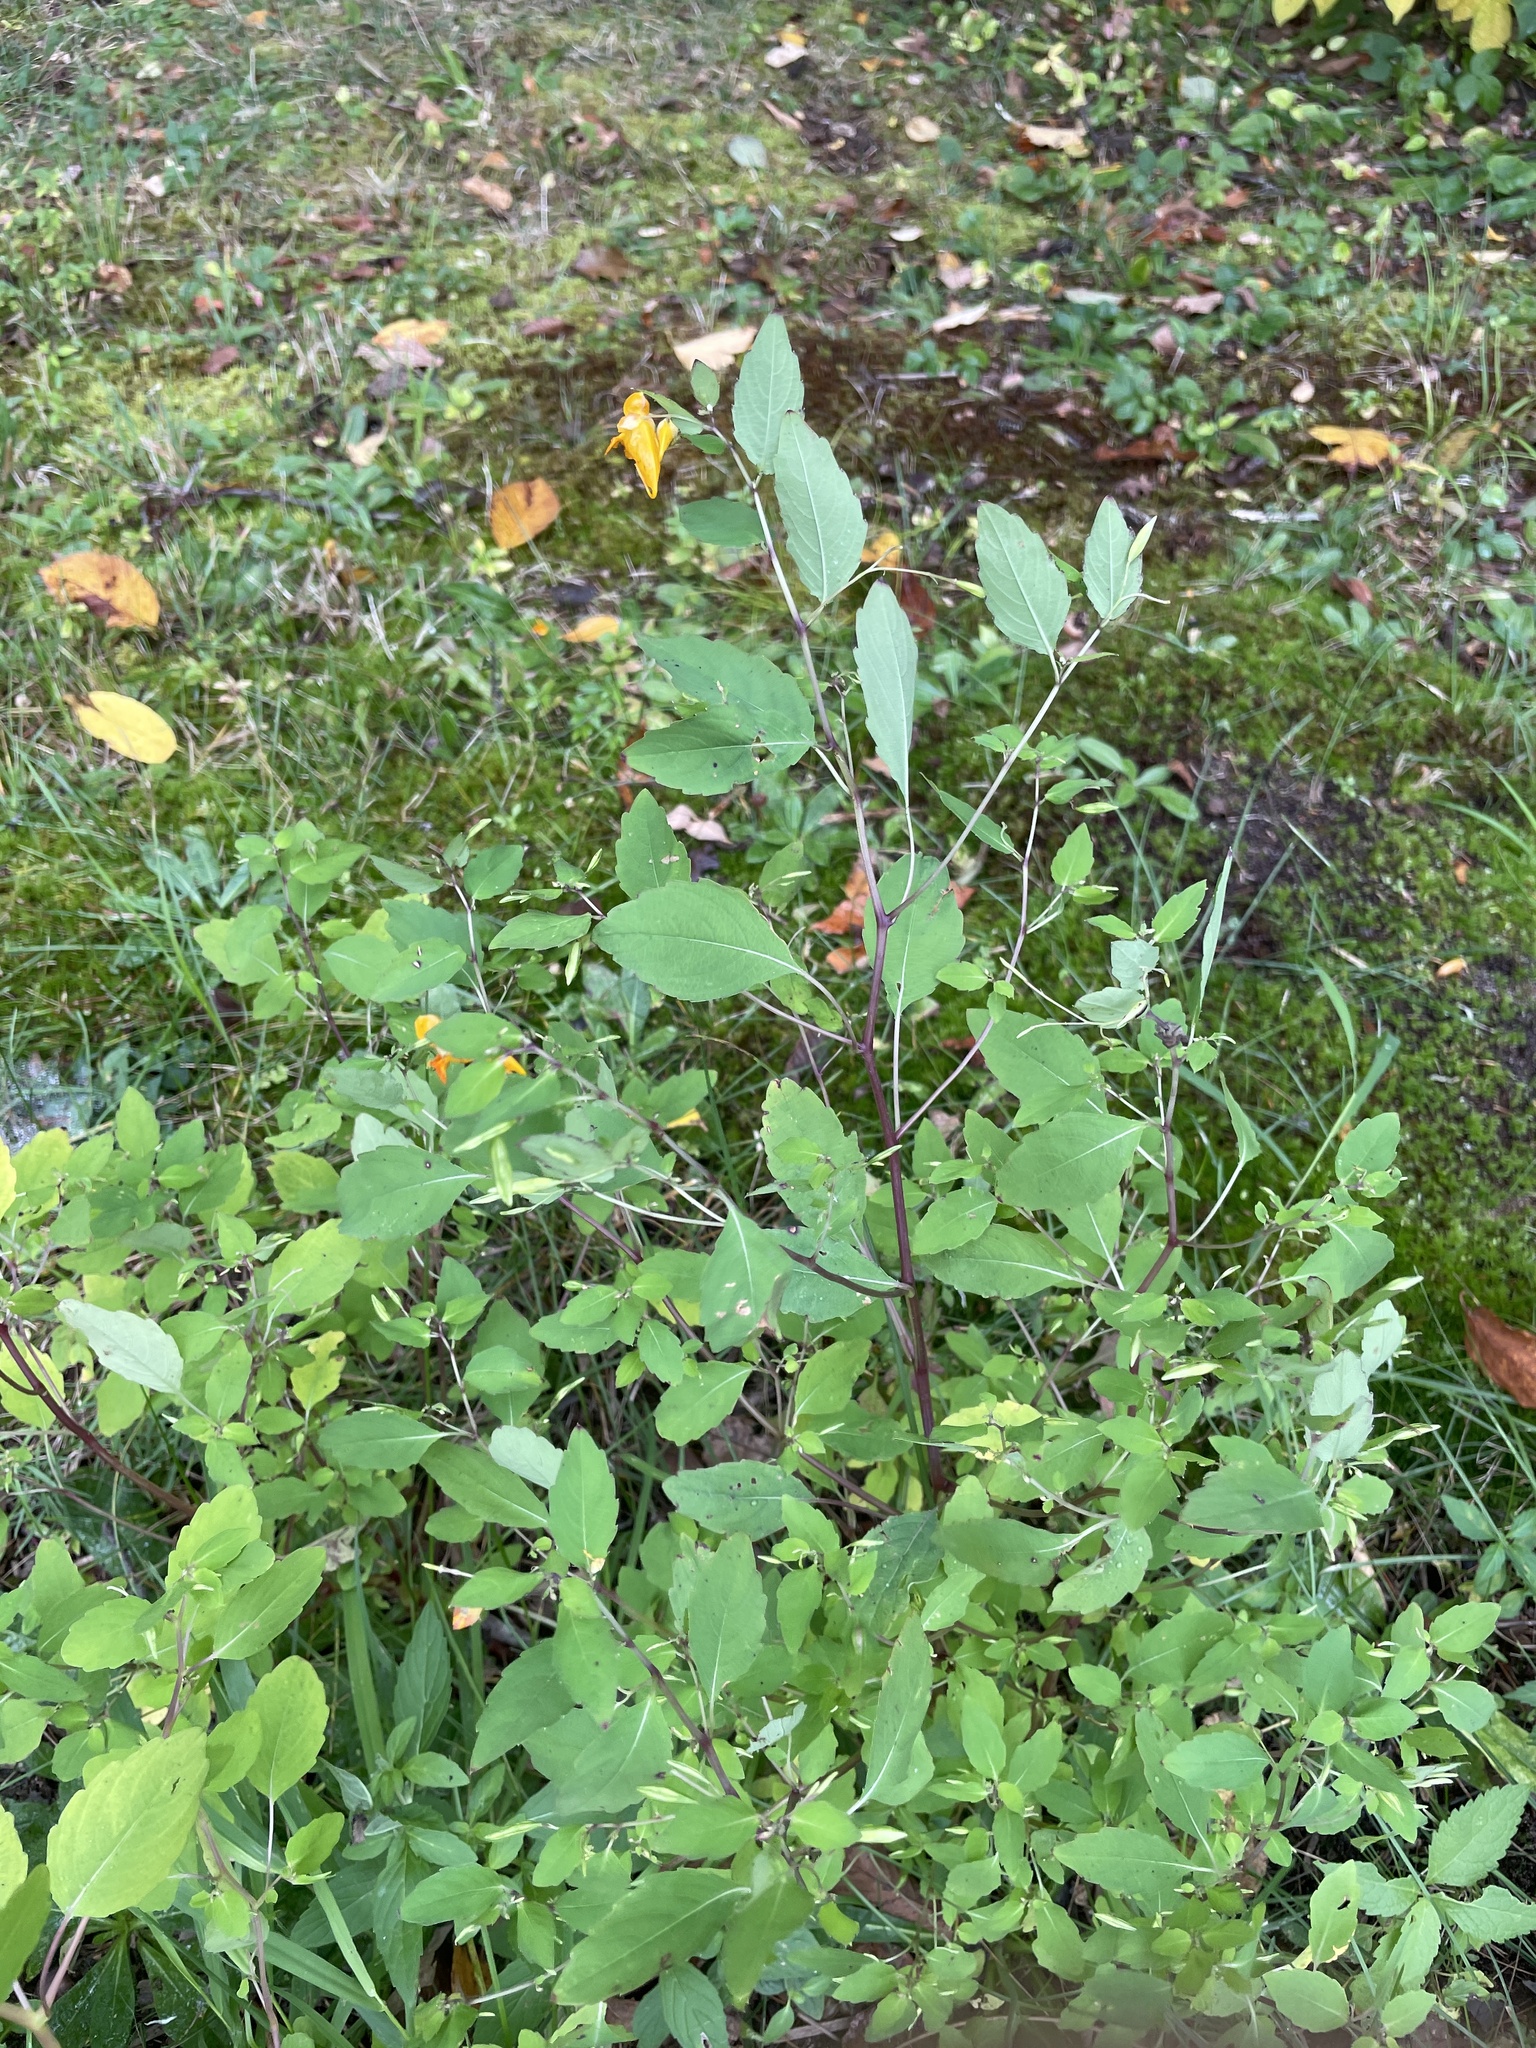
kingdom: Plantae
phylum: Tracheophyta
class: Magnoliopsida
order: Ericales
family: Balsaminaceae
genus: Impatiens
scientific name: Impatiens capensis
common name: Orange balsam
